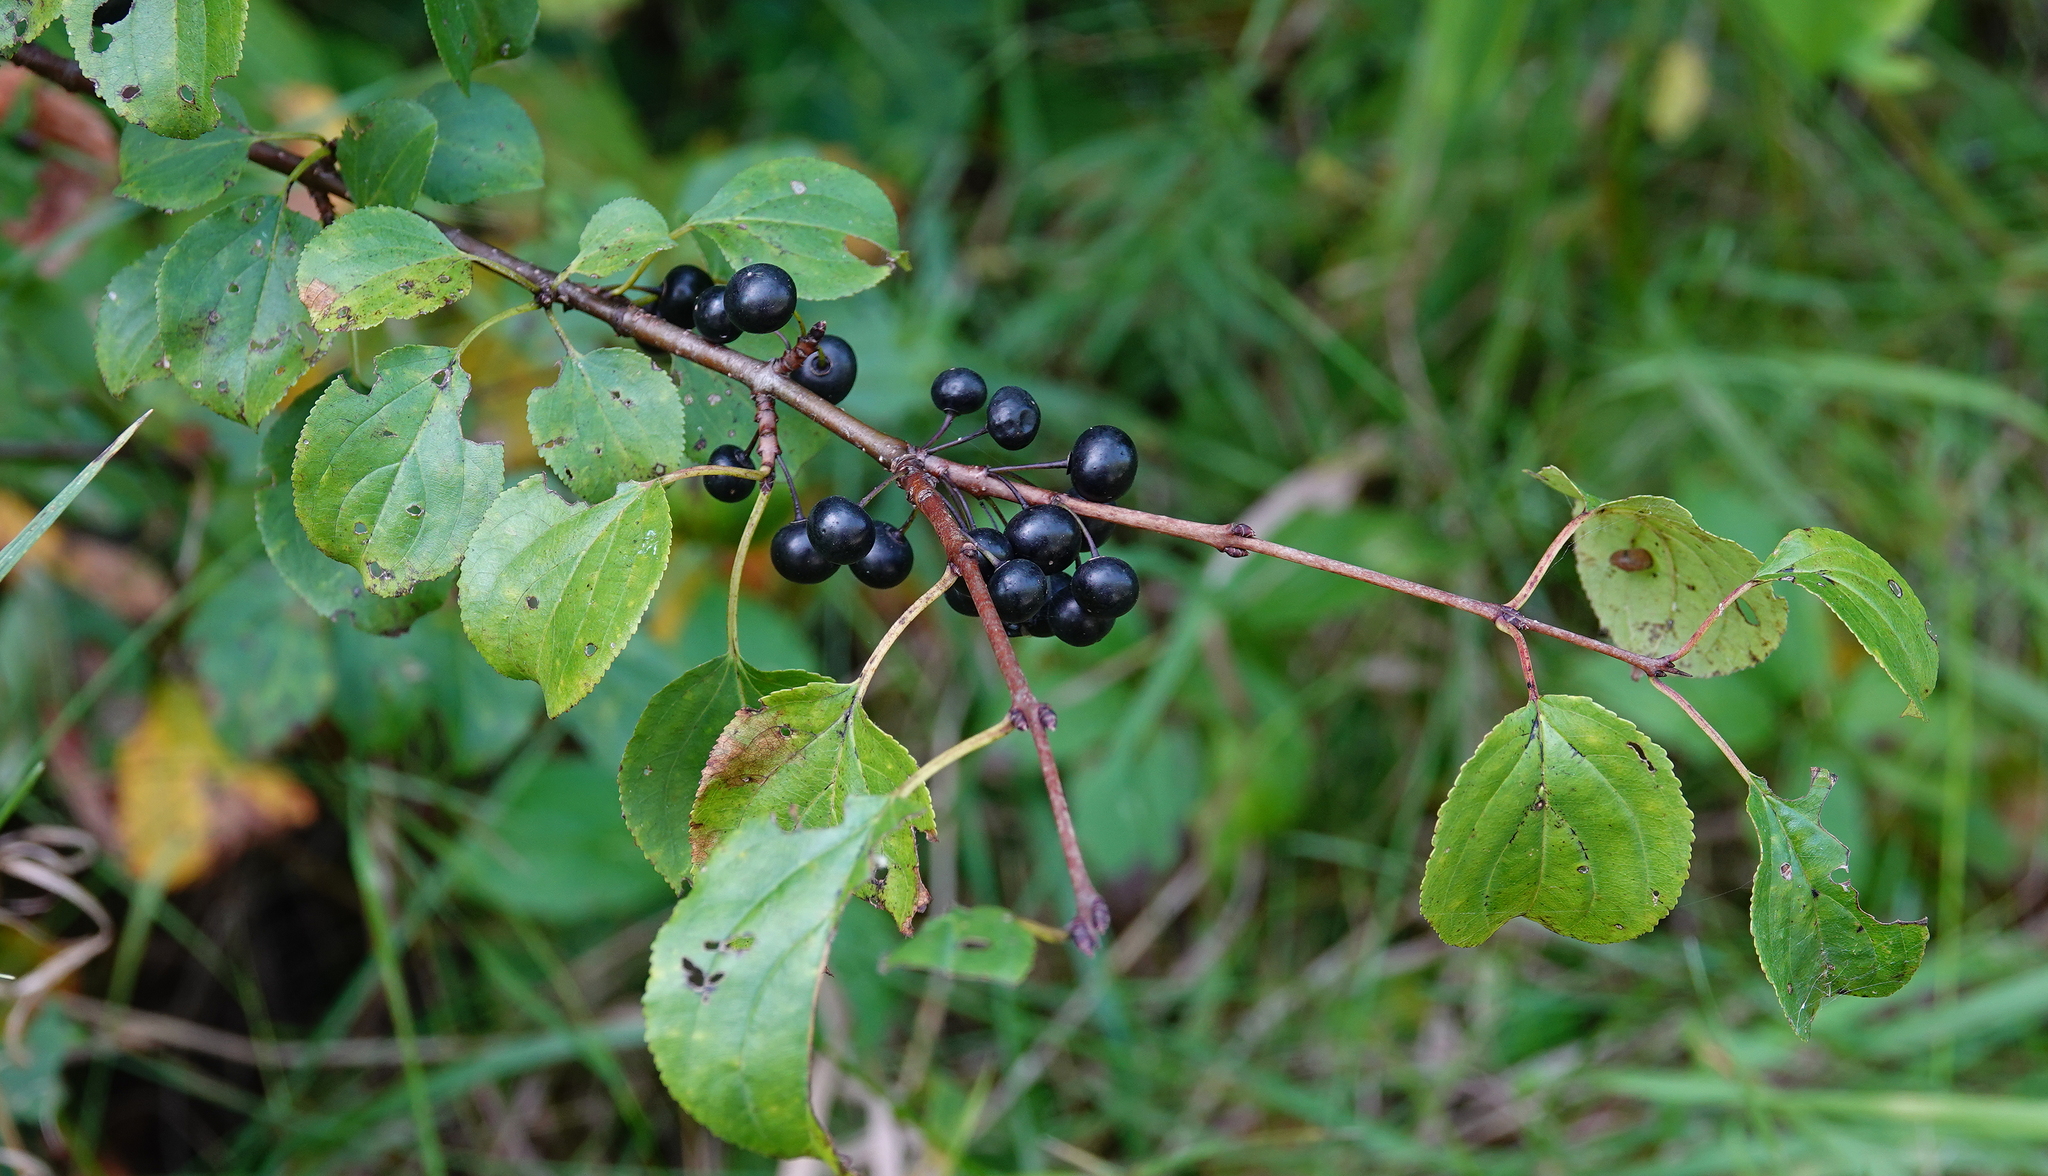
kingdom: Plantae
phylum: Tracheophyta
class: Magnoliopsida
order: Rosales
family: Rhamnaceae
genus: Rhamnus
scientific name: Rhamnus cathartica
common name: Common buckthorn
